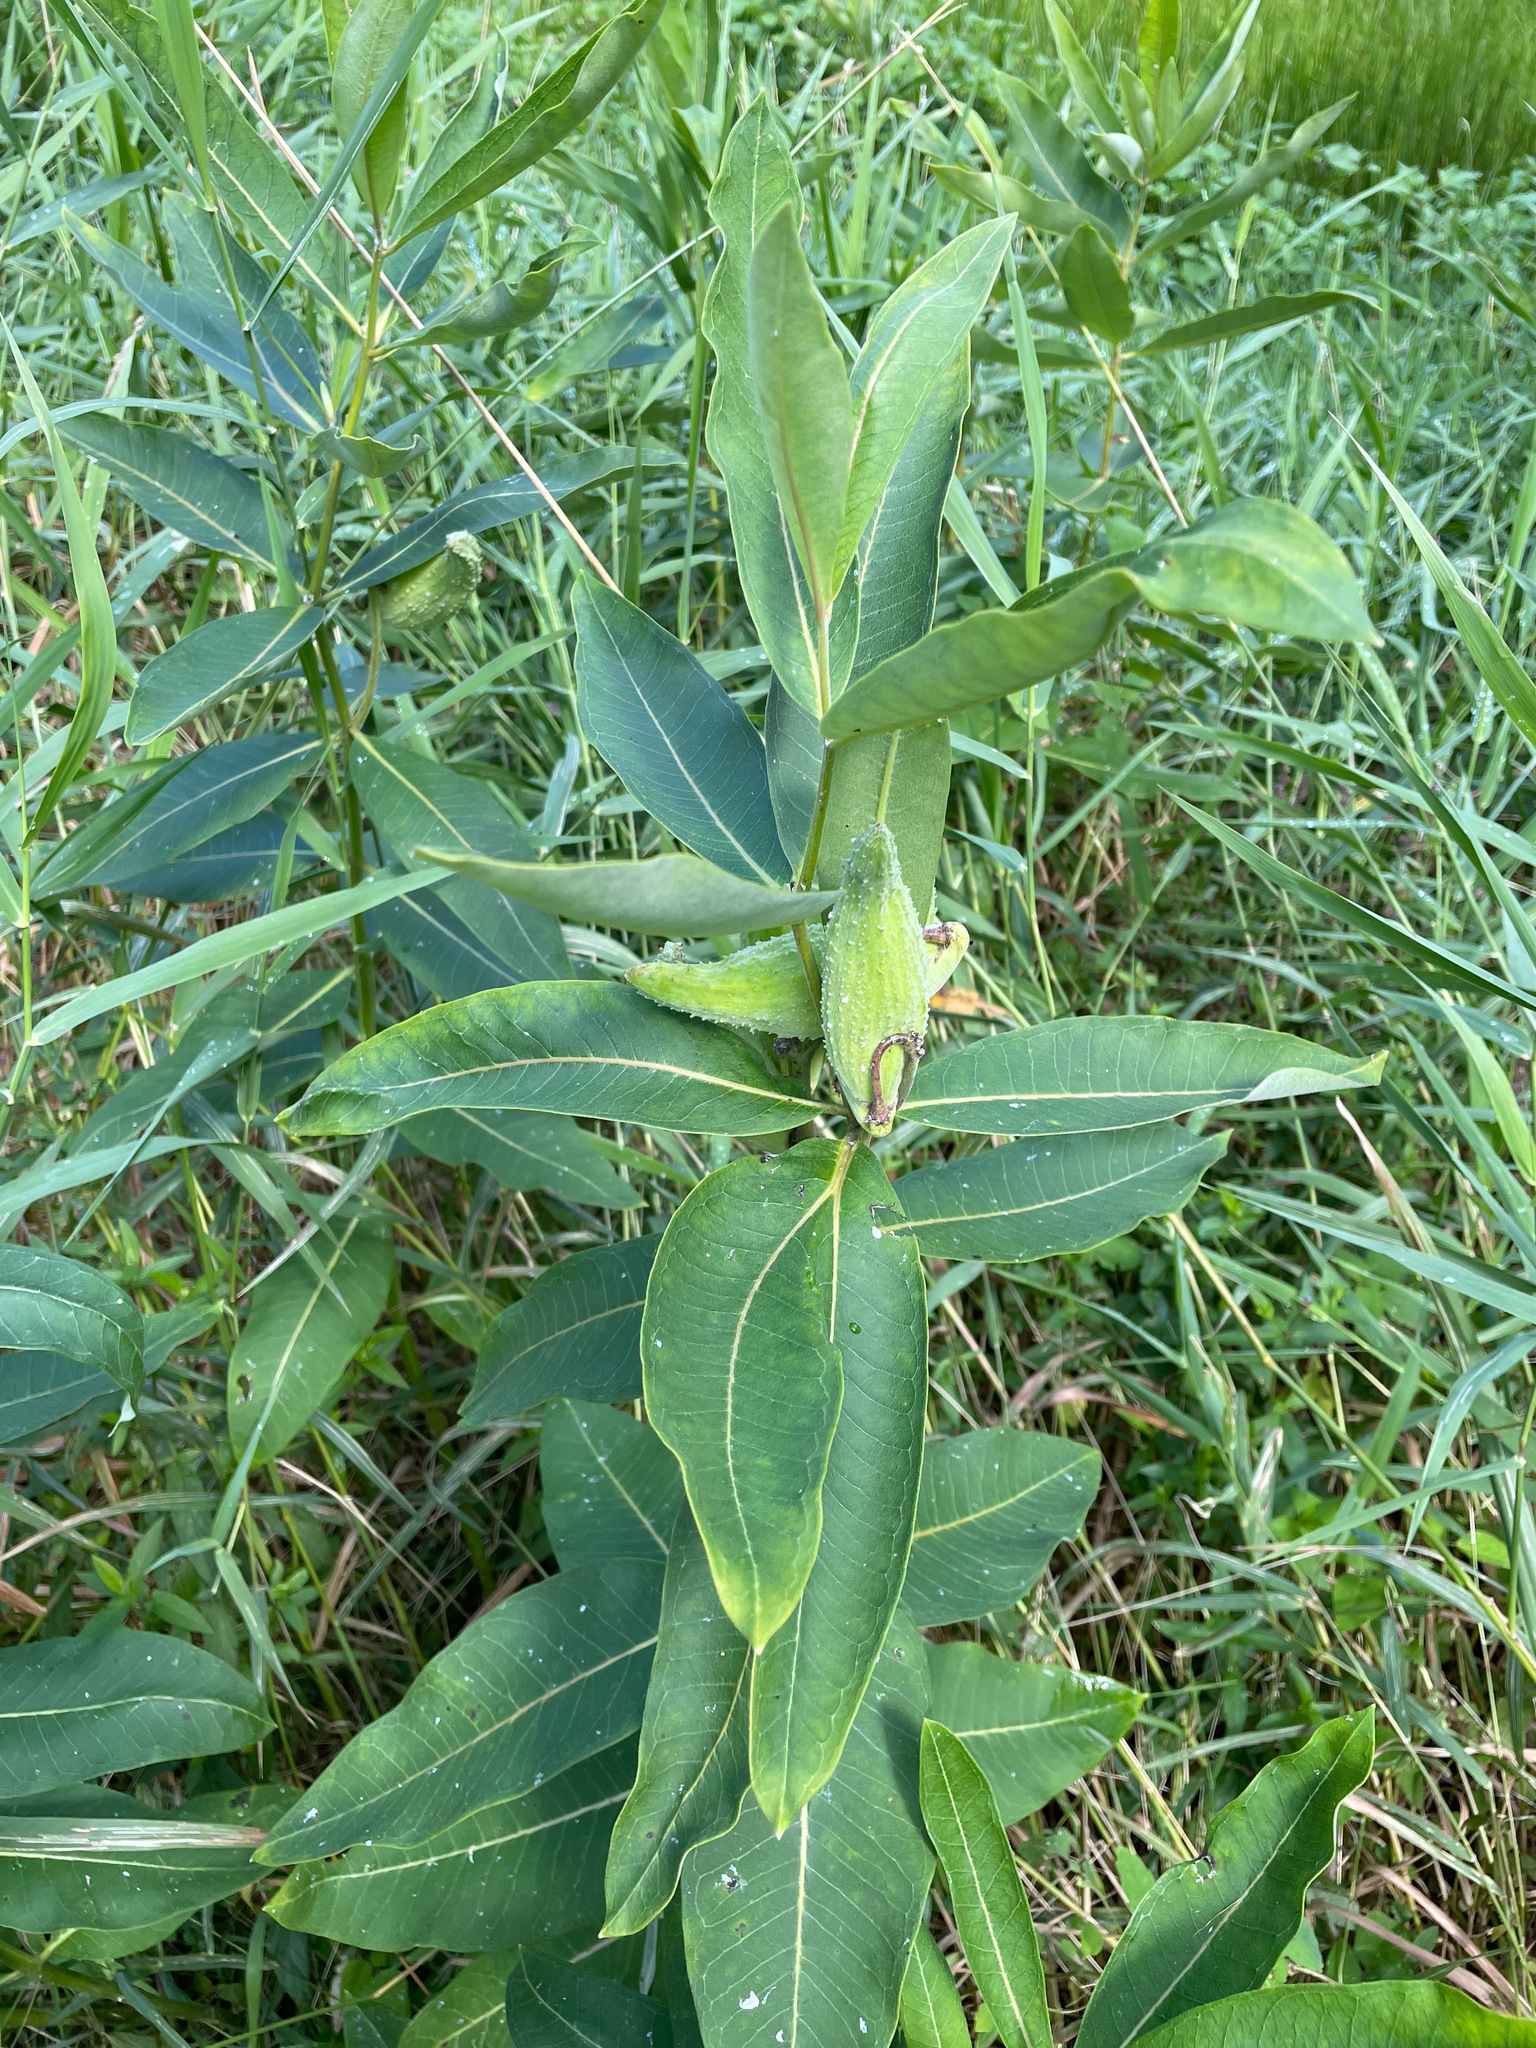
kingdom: Plantae
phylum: Tracheophyta
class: Magnoliopsida
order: Gentianales
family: Apocynaceae
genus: Asclepias
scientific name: Asclepias syriaca
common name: Common milkweed
